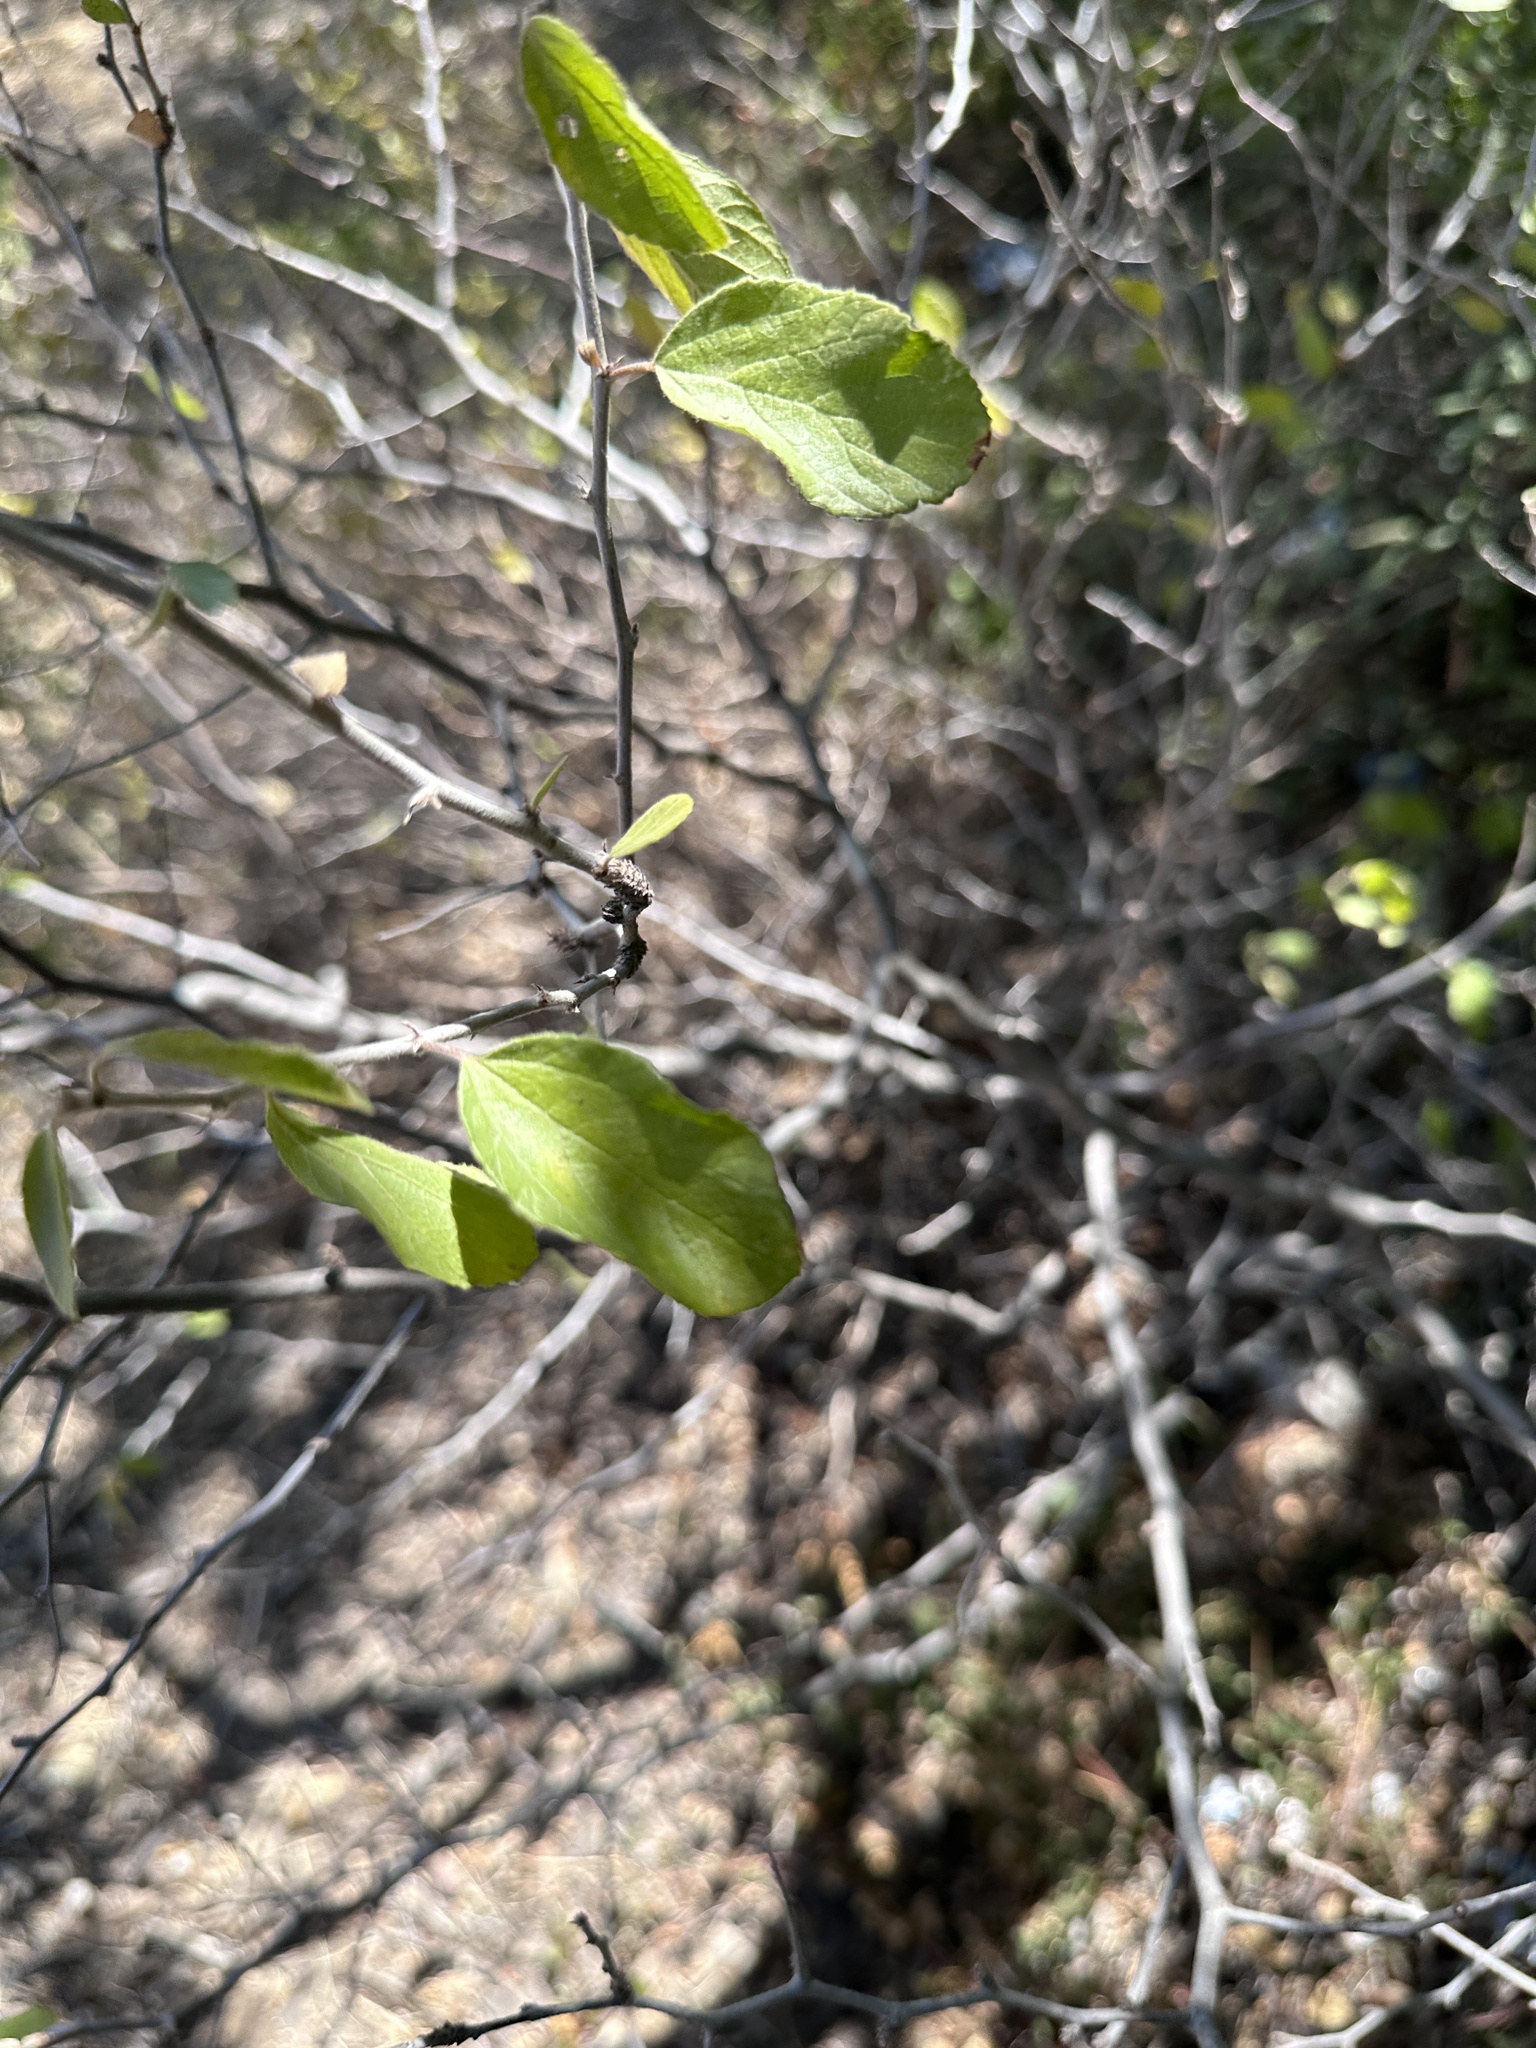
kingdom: Plantae
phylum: Tracheophyta
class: Magnoliopsida
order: Rosales
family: Rhamnaceae
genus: Colubrina
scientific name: Colubrina texensis
